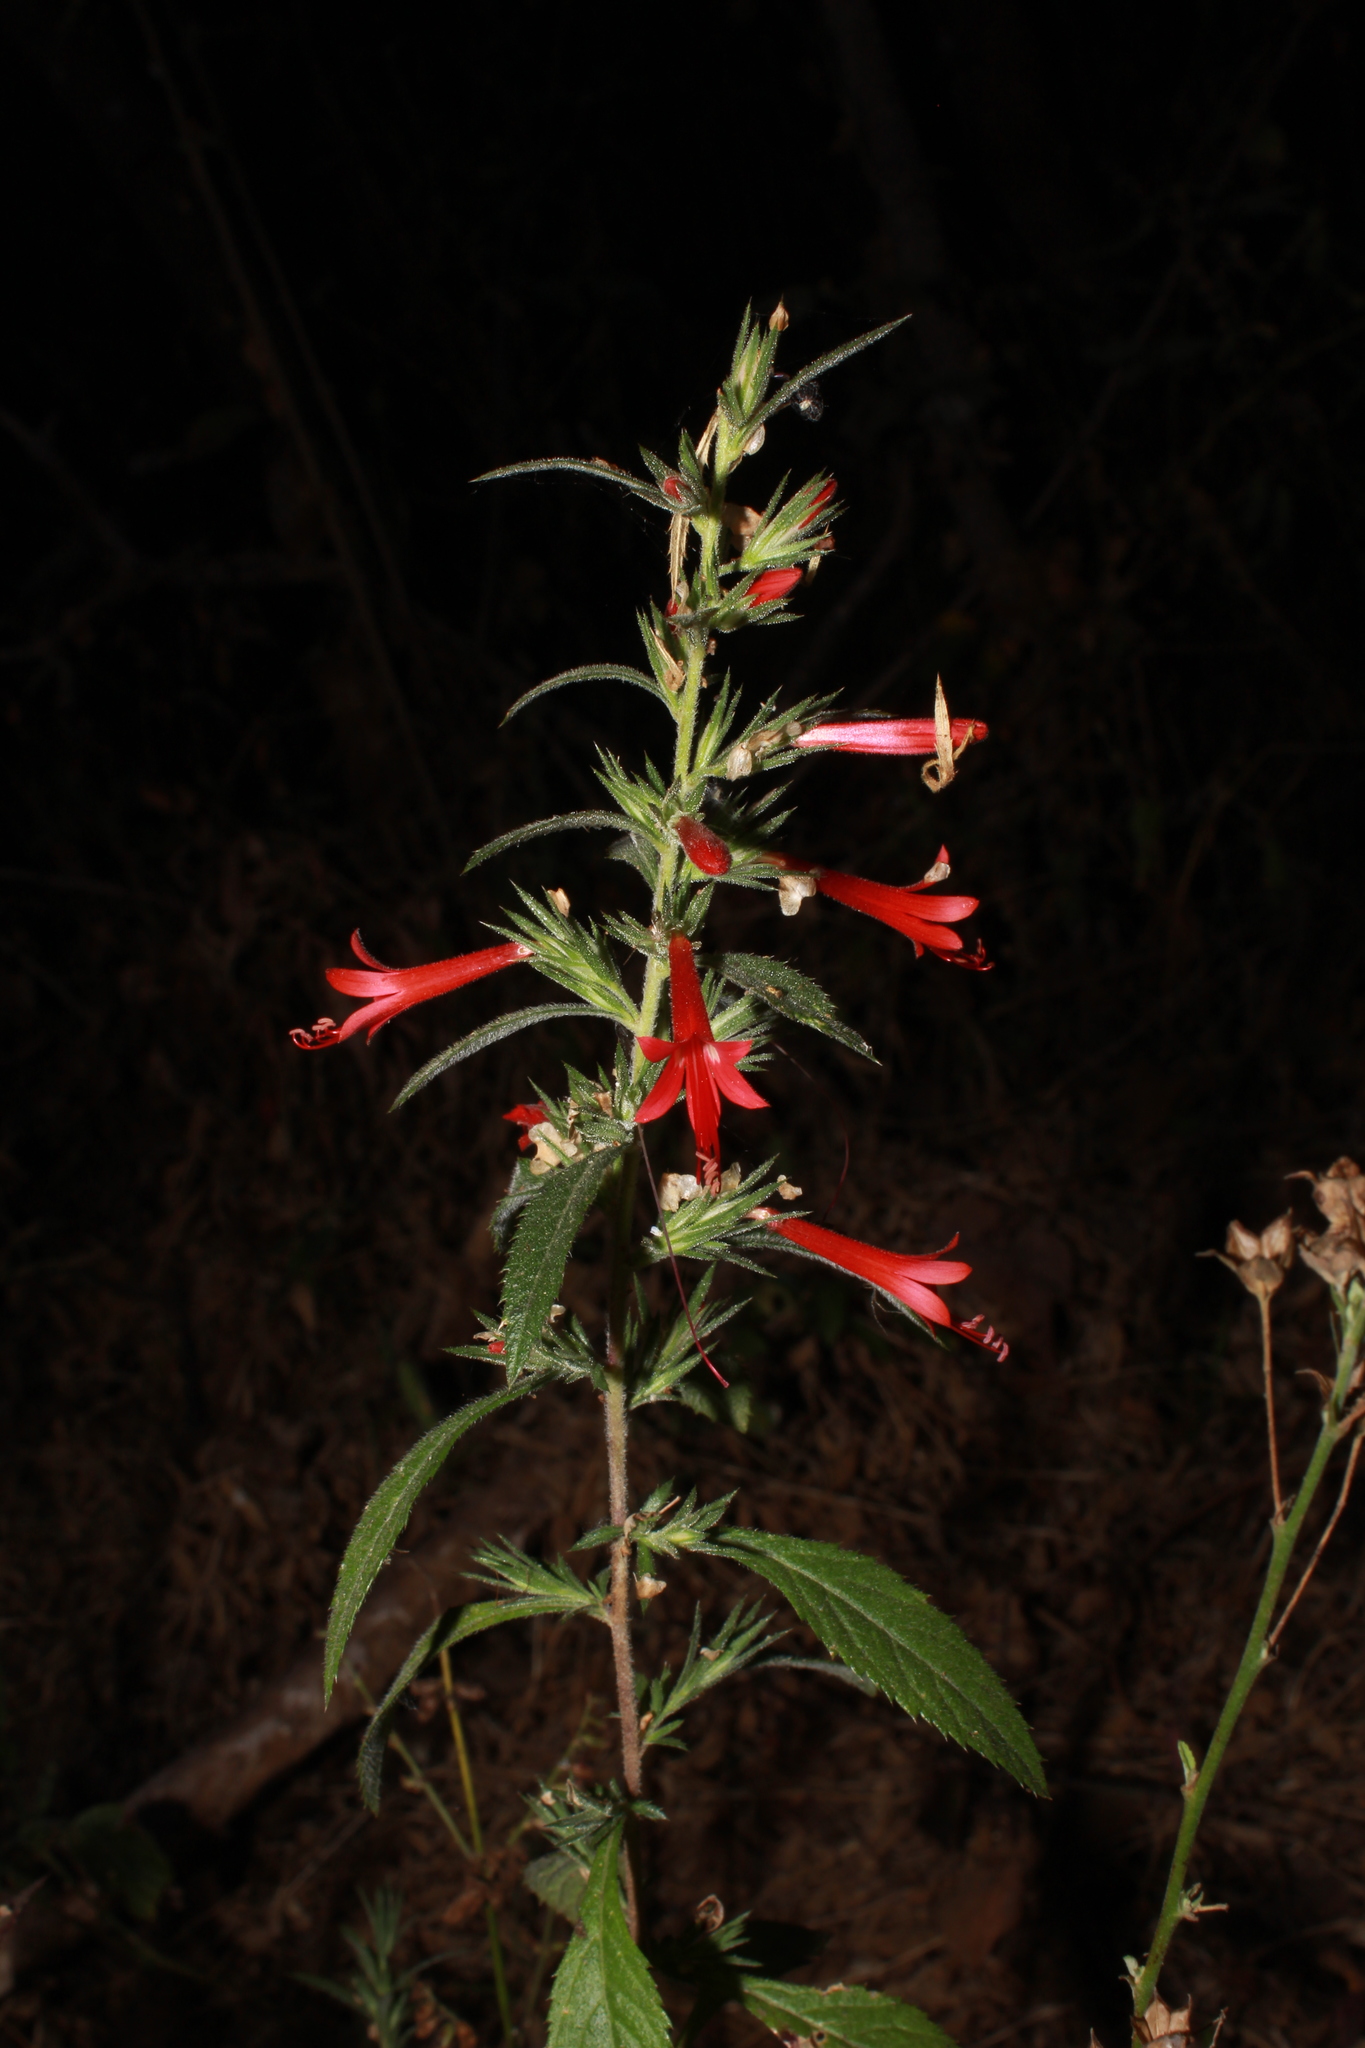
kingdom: Plantae
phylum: Tracheophyta
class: Magnoliopsida
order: Ericales
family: Polemoniaceae
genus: Loeselia
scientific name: Loeselia mexicana
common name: Mexican false calico
